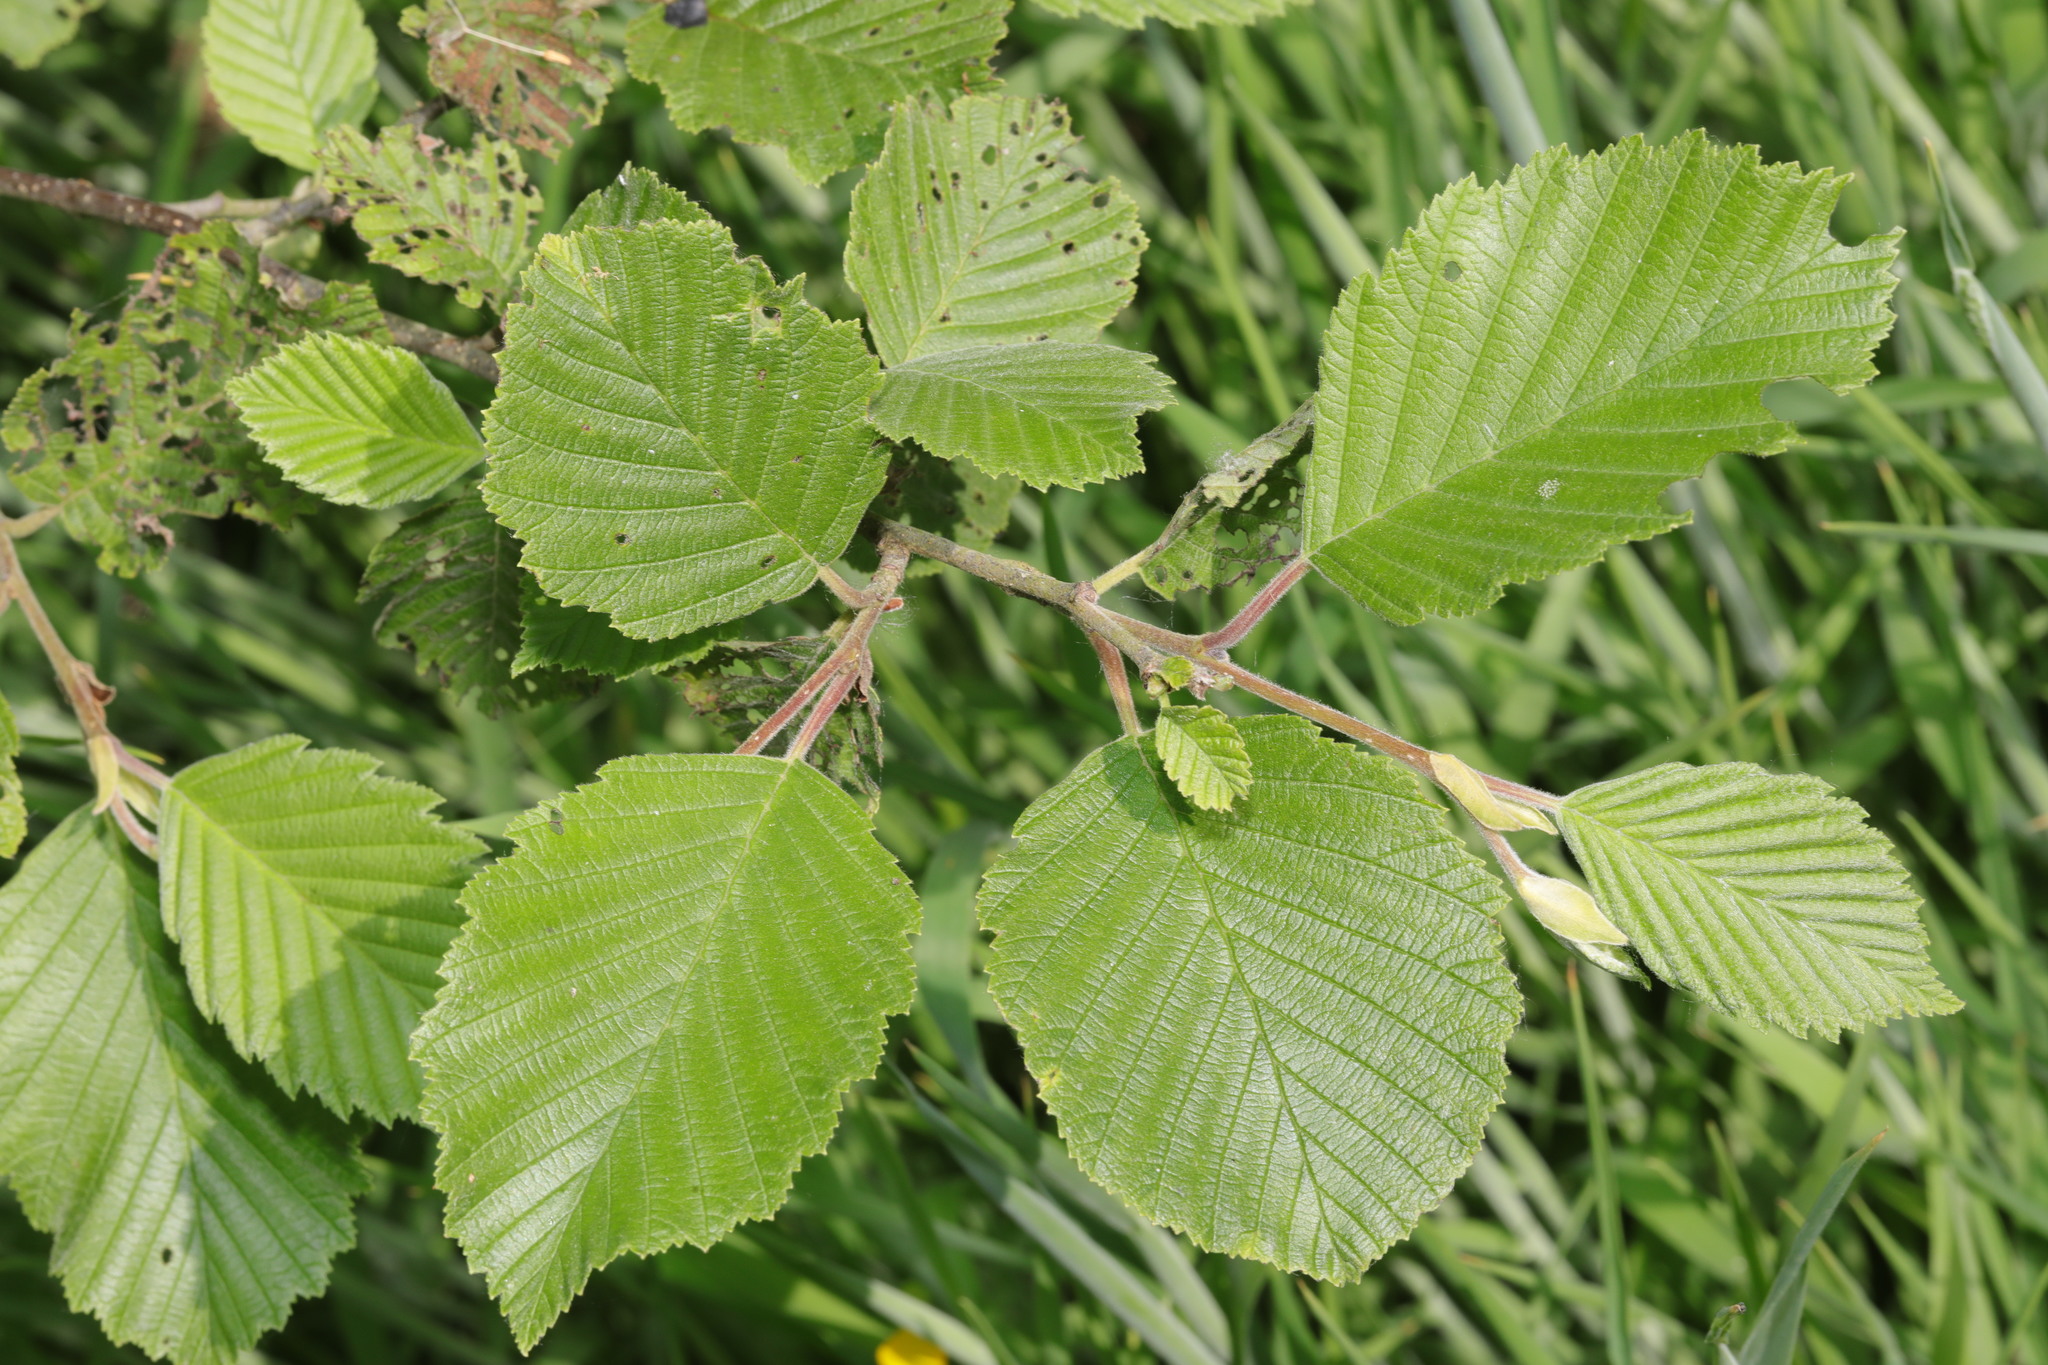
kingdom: Plantae
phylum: Tracheophyta
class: Magnoliopsida
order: Fagales
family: Betulaceae
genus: Alnus
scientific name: Alnus incana
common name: Grey alder
